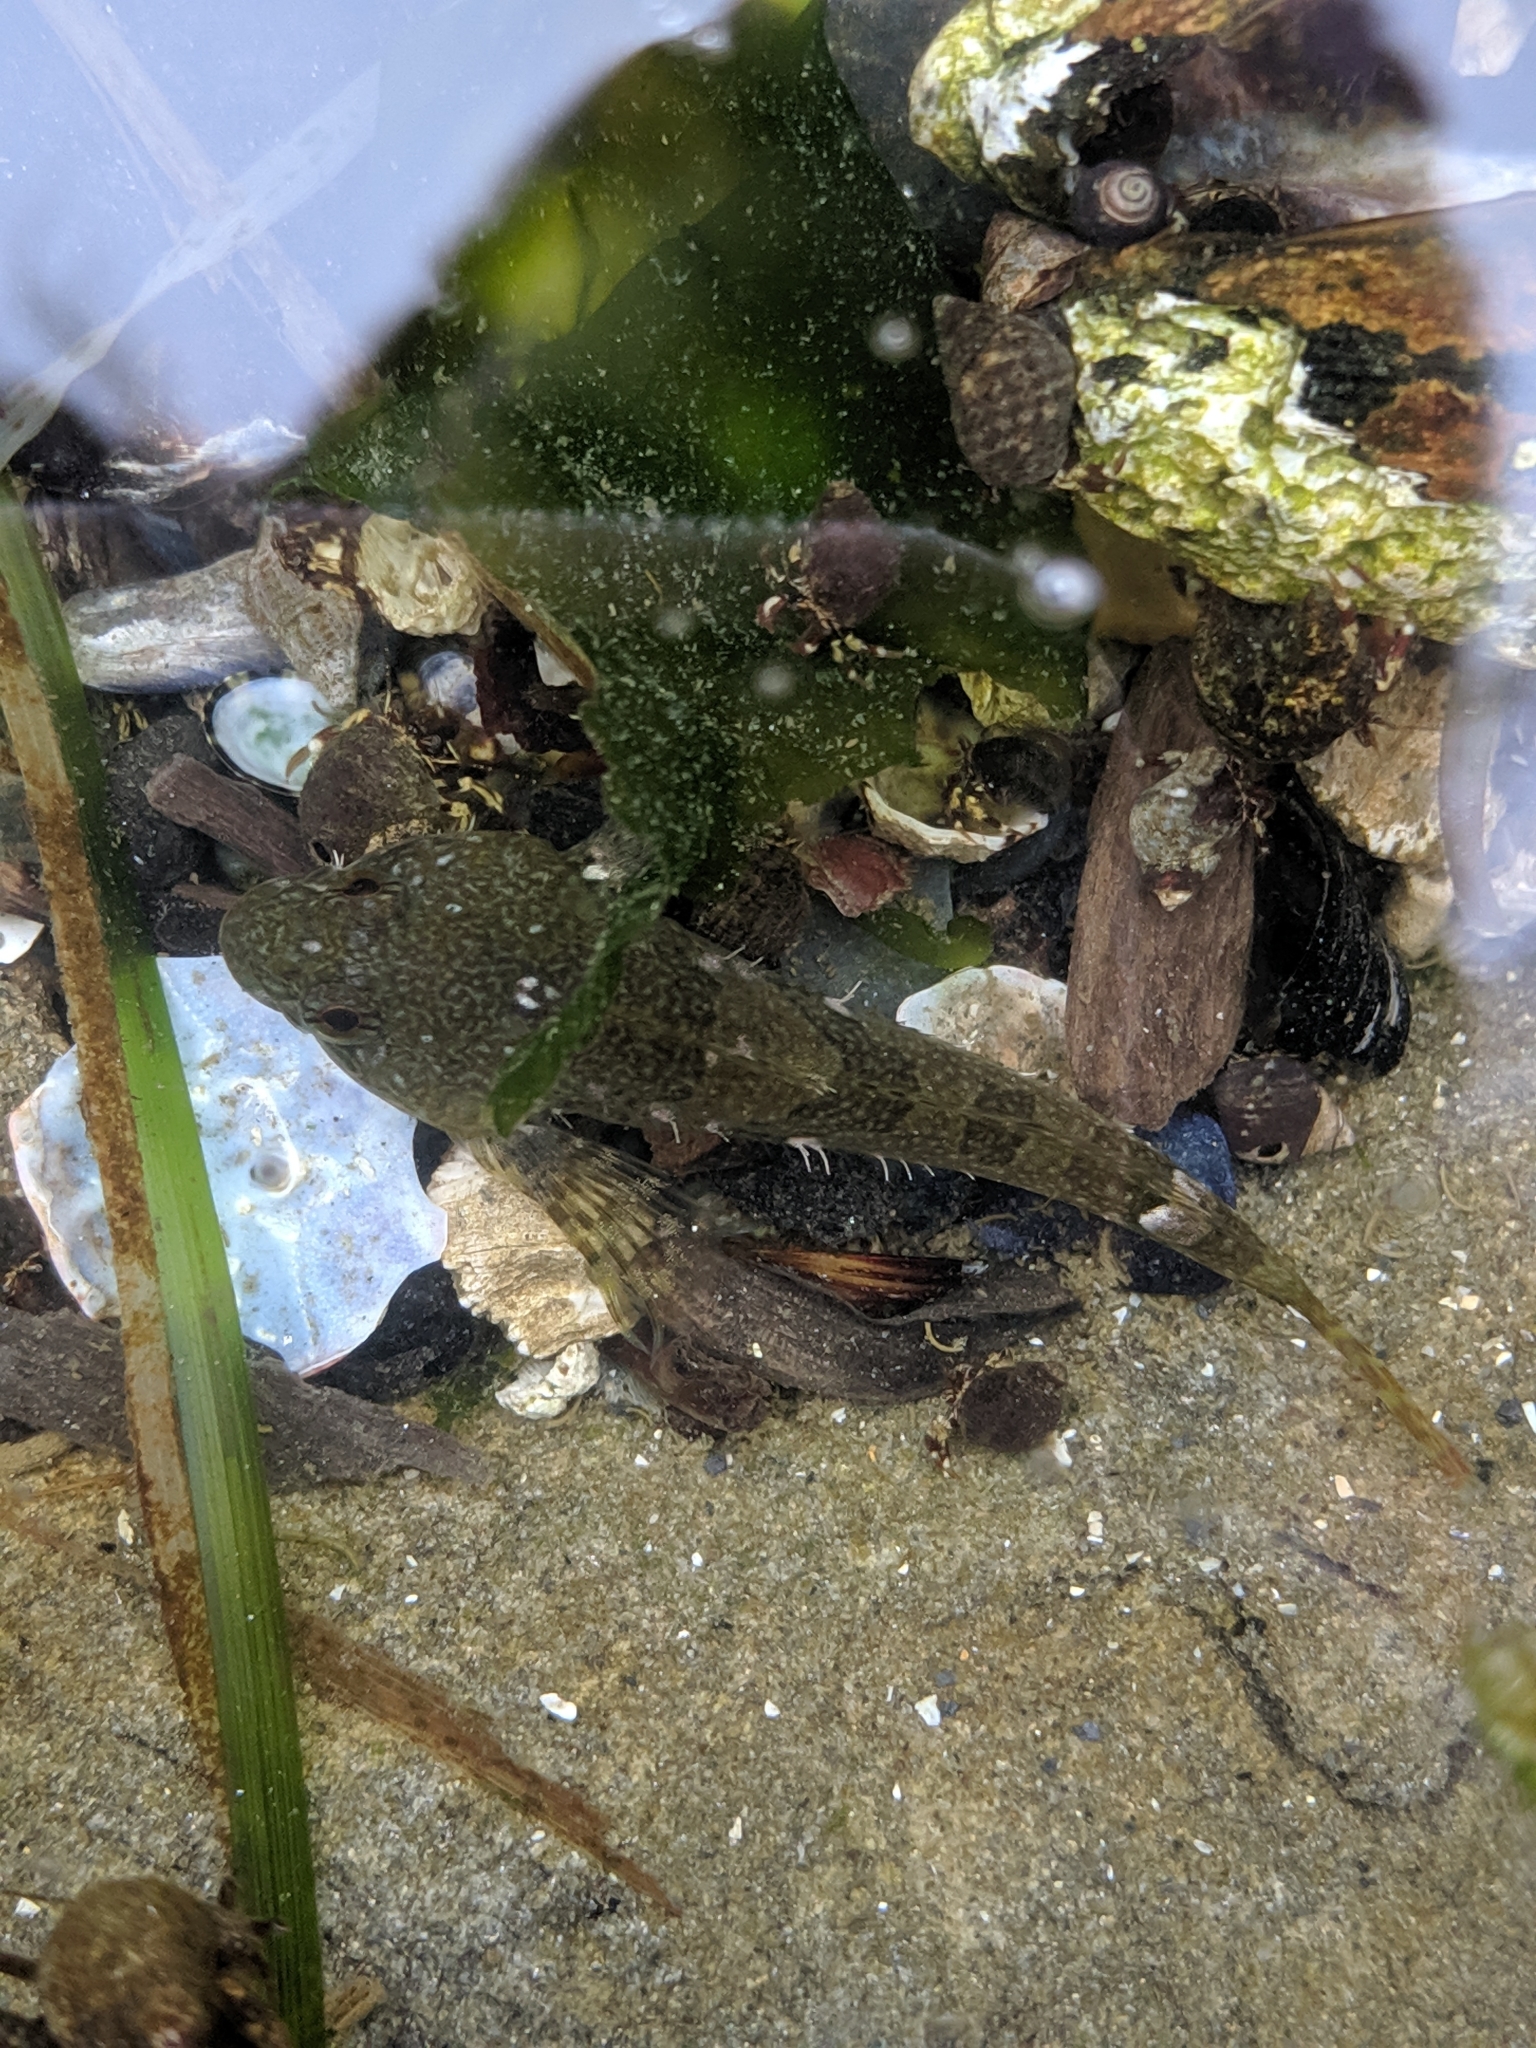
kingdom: Animalia
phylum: Chordata
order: Scorpaeniformes
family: Cottidae
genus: Oligocottus
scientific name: Oligocottus maculosus
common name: Tidepool sculpin
